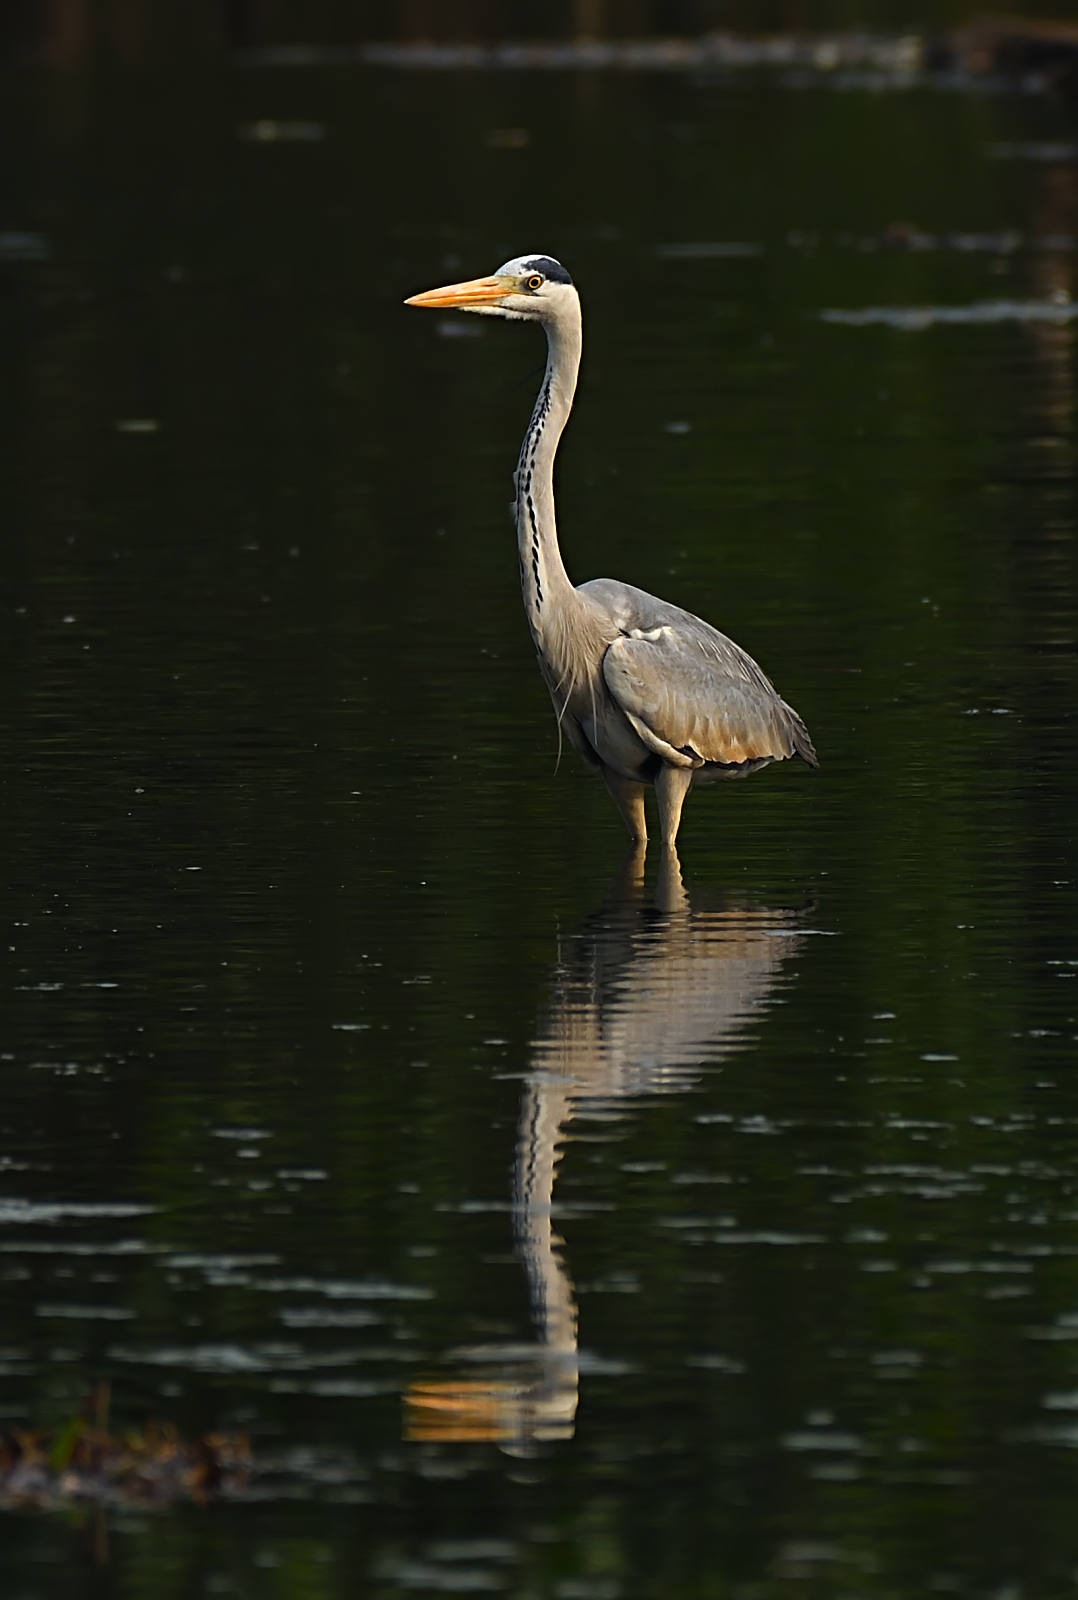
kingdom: Animalia
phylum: Chordata
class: Aves
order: Pelecaniformes
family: Ardeidae
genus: Ardea
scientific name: Ardea cinerea
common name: Grey heron
